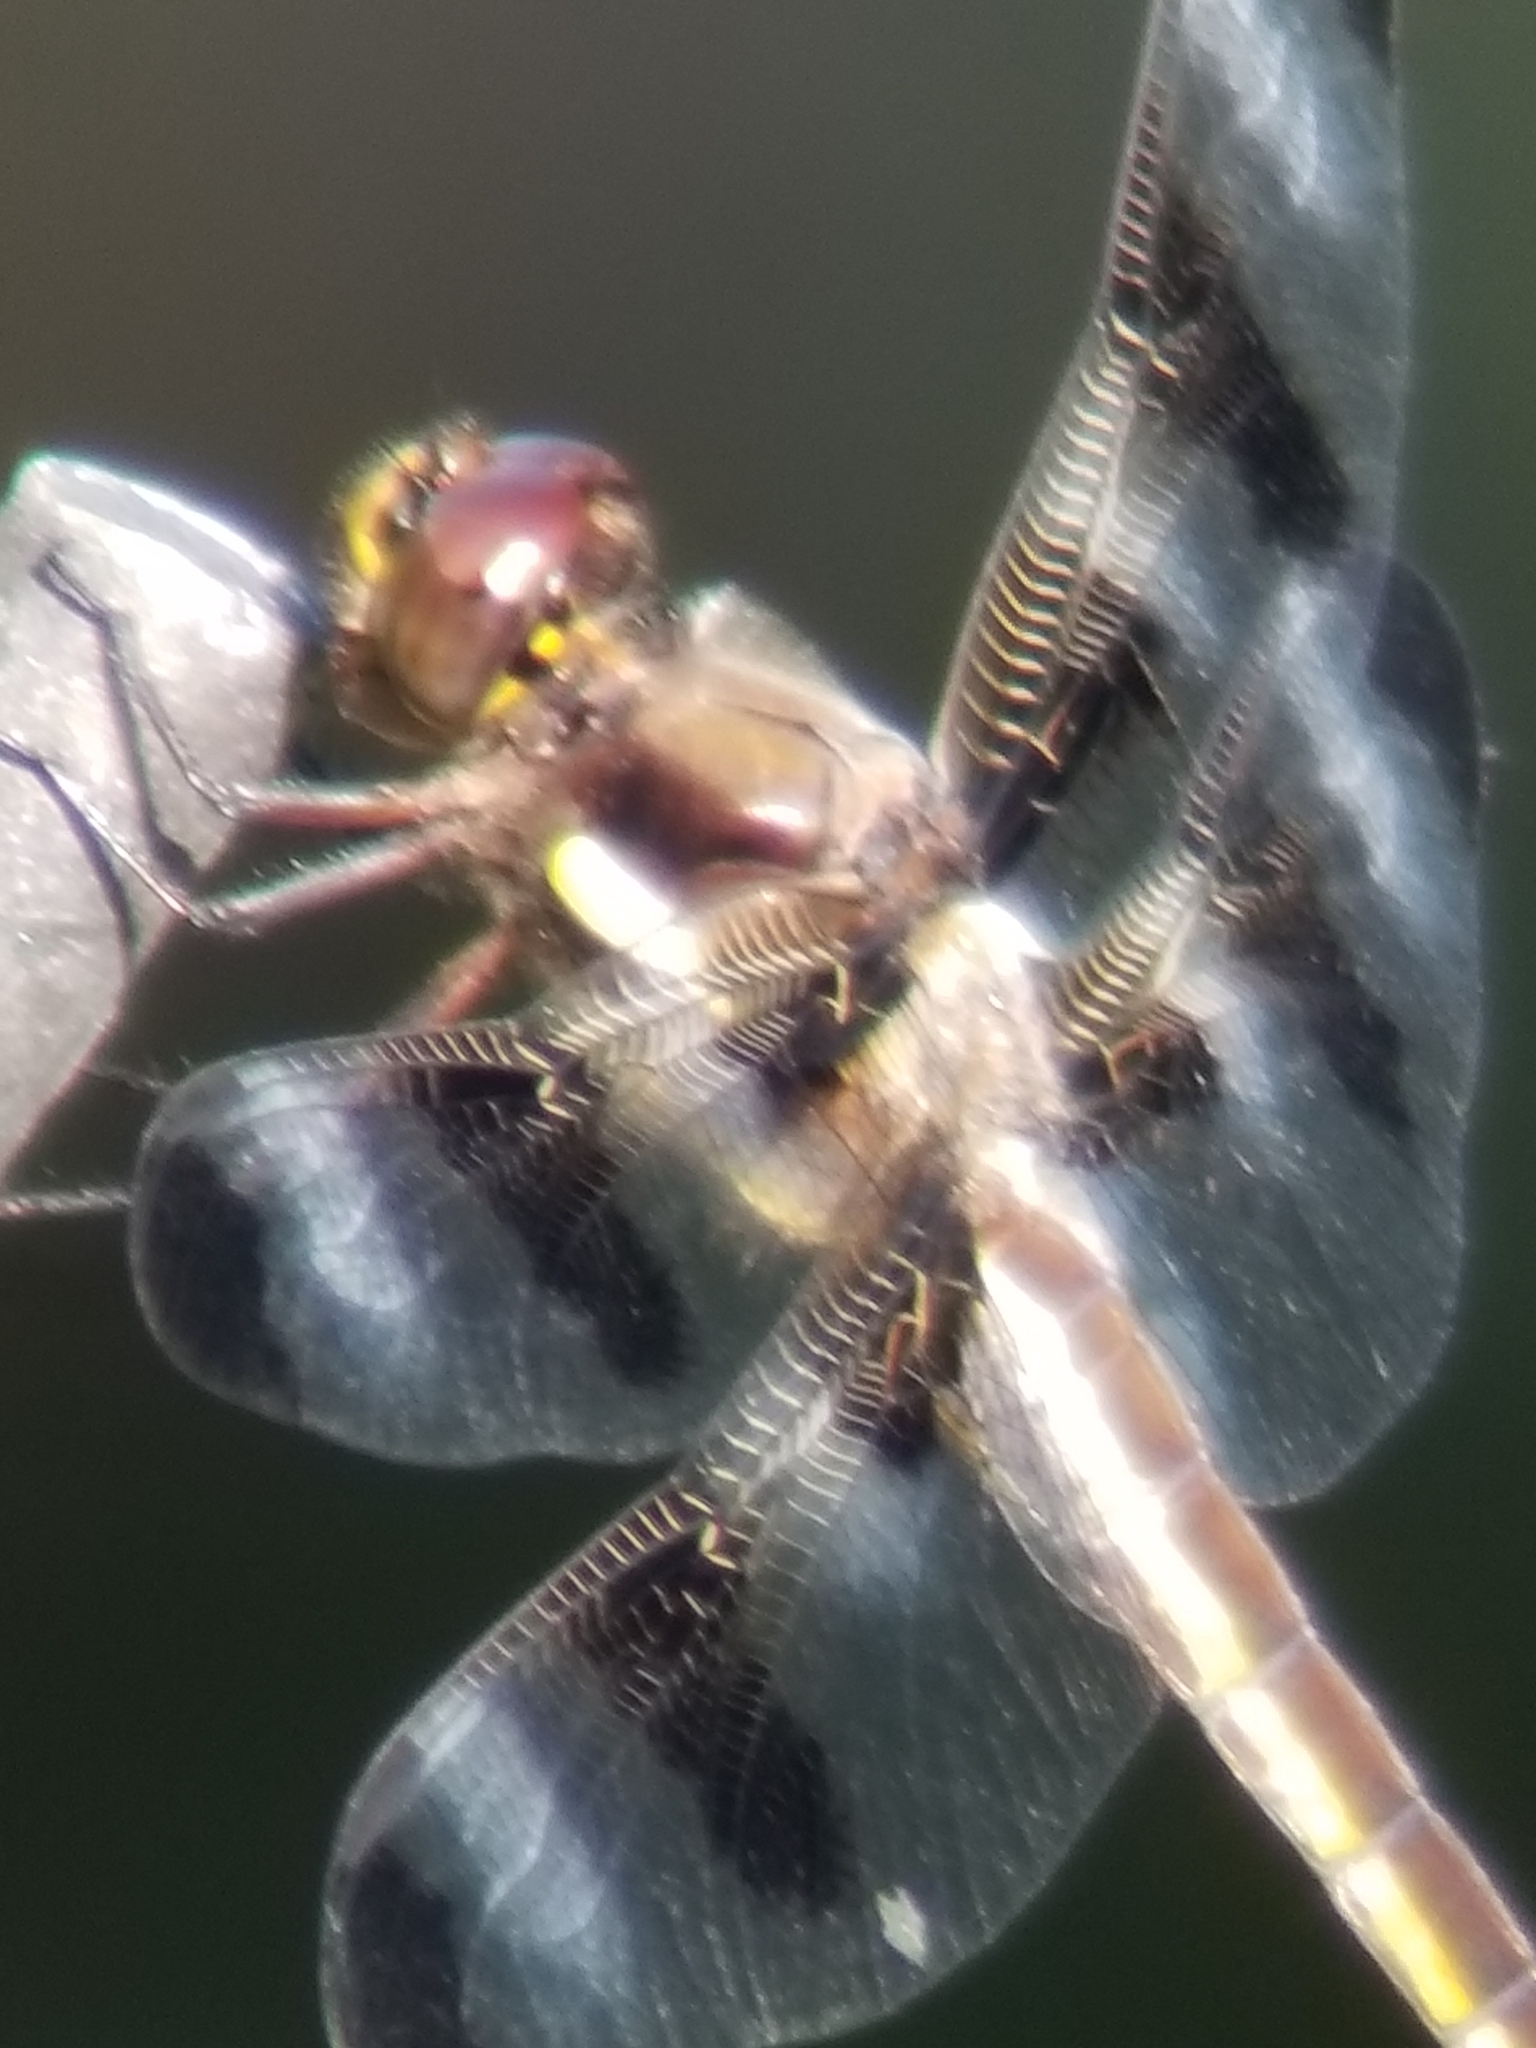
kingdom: Animalia
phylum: Arthropoda
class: Insecta
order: Odonata
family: Libellulidae
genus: Libellula
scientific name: Libellula pulchella
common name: Twelve-spotted skimmer
